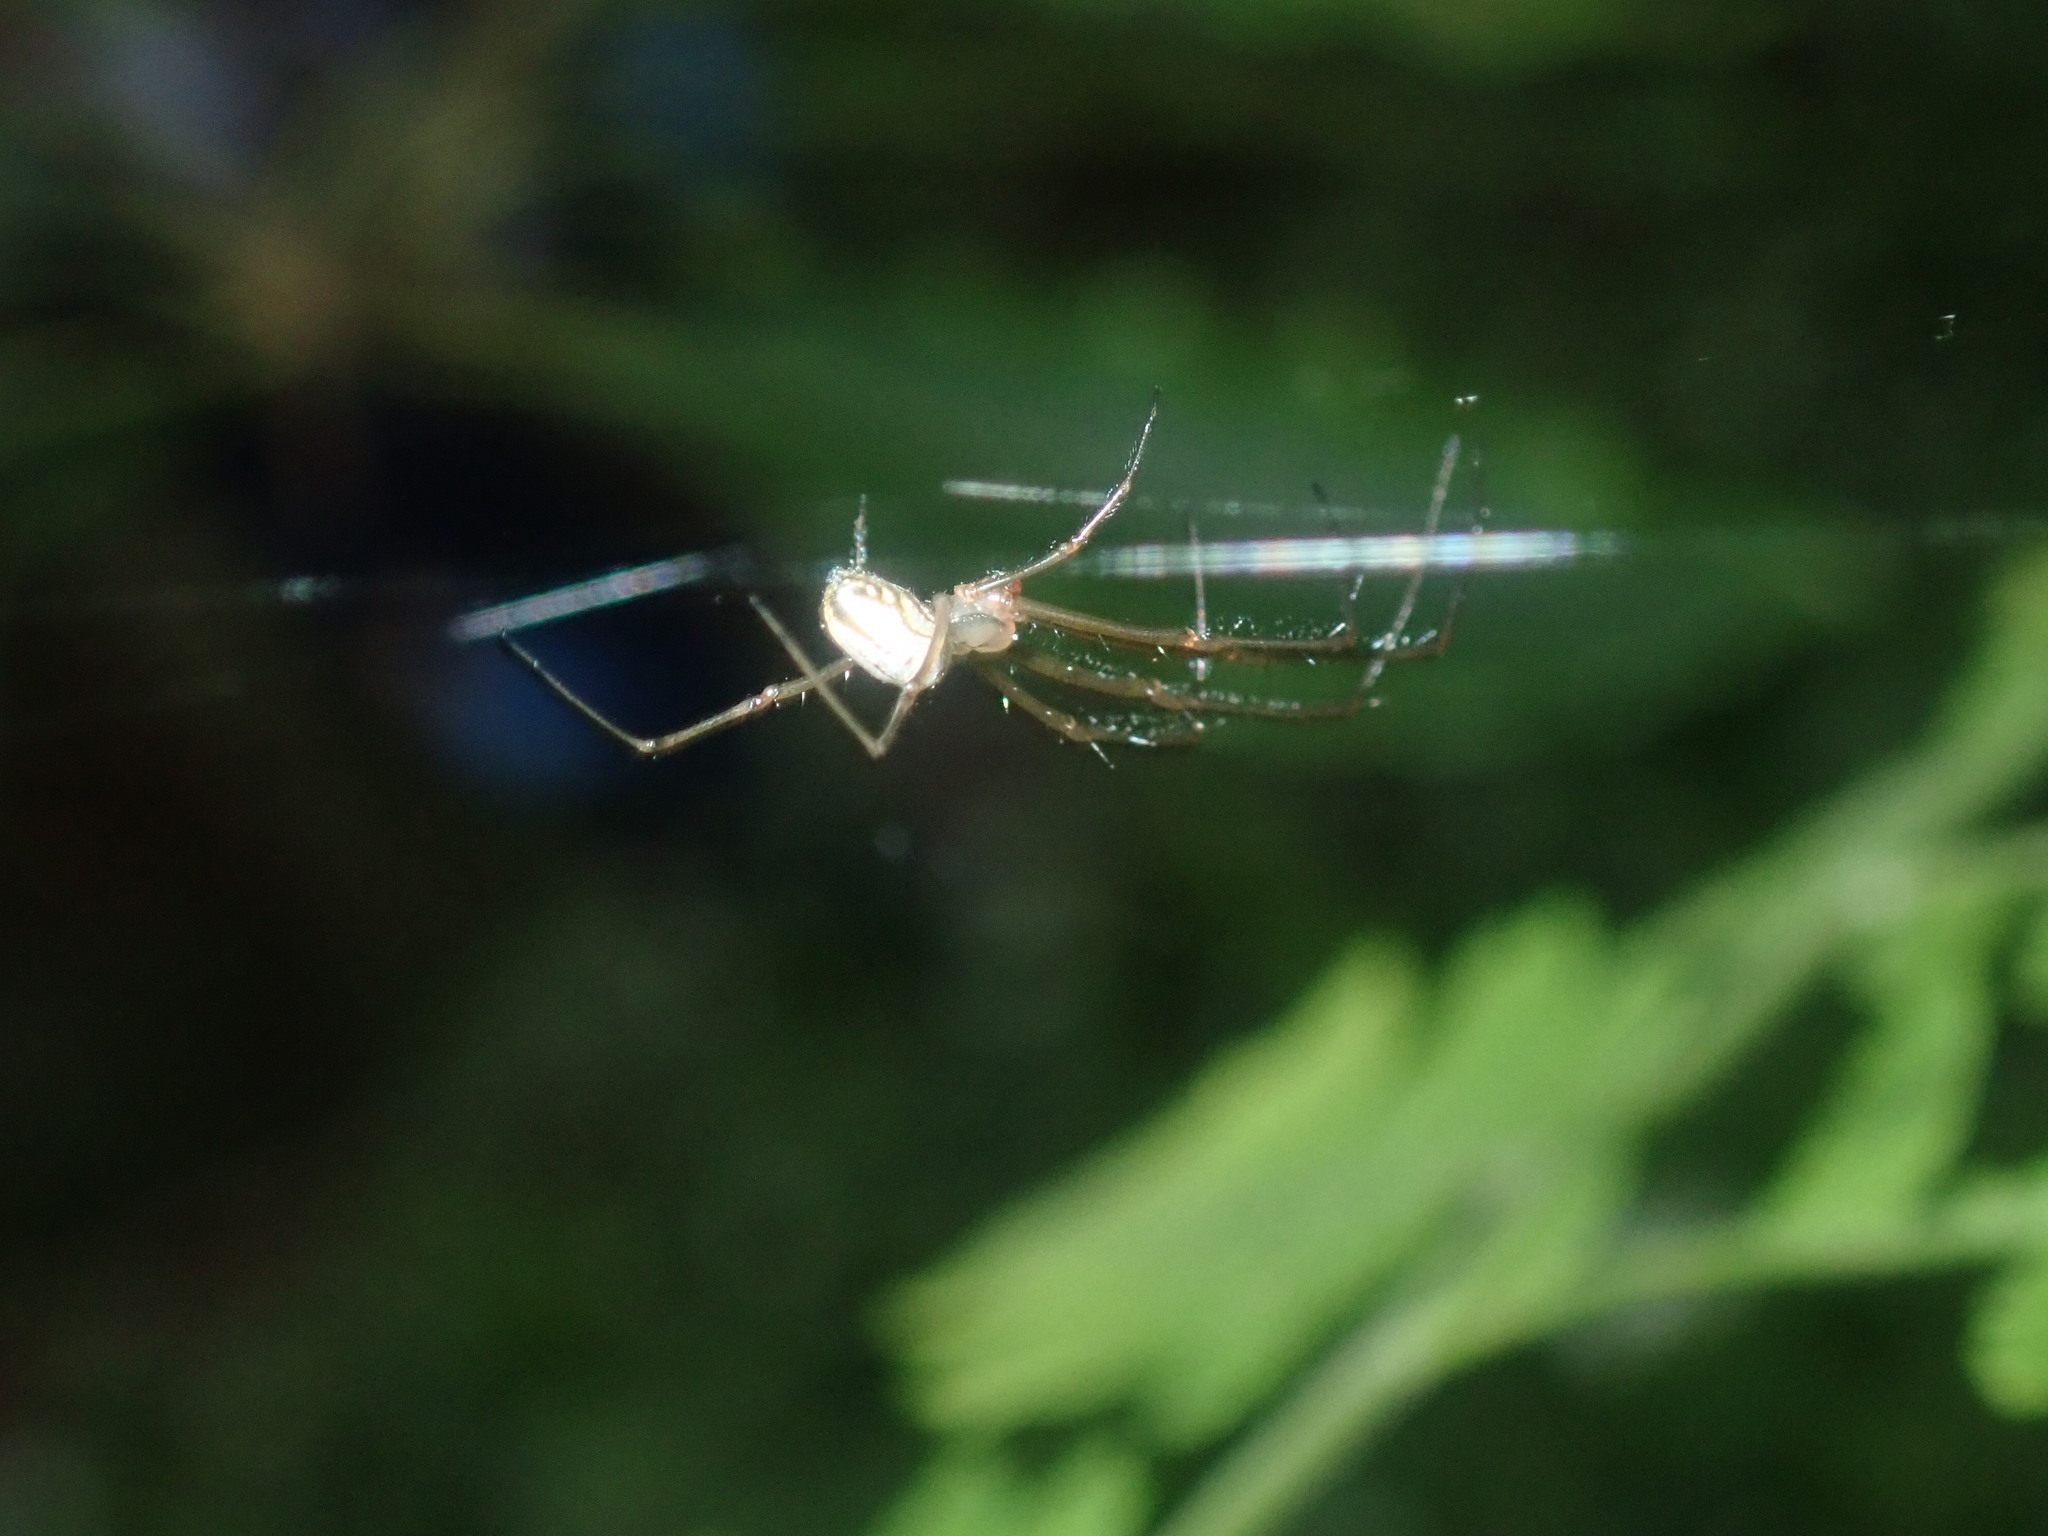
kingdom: Animalia
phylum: Arthropoda
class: Arachnida
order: Araneae
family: Tetragnathidae
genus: Leucauge
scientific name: Leucauge dromedaria
